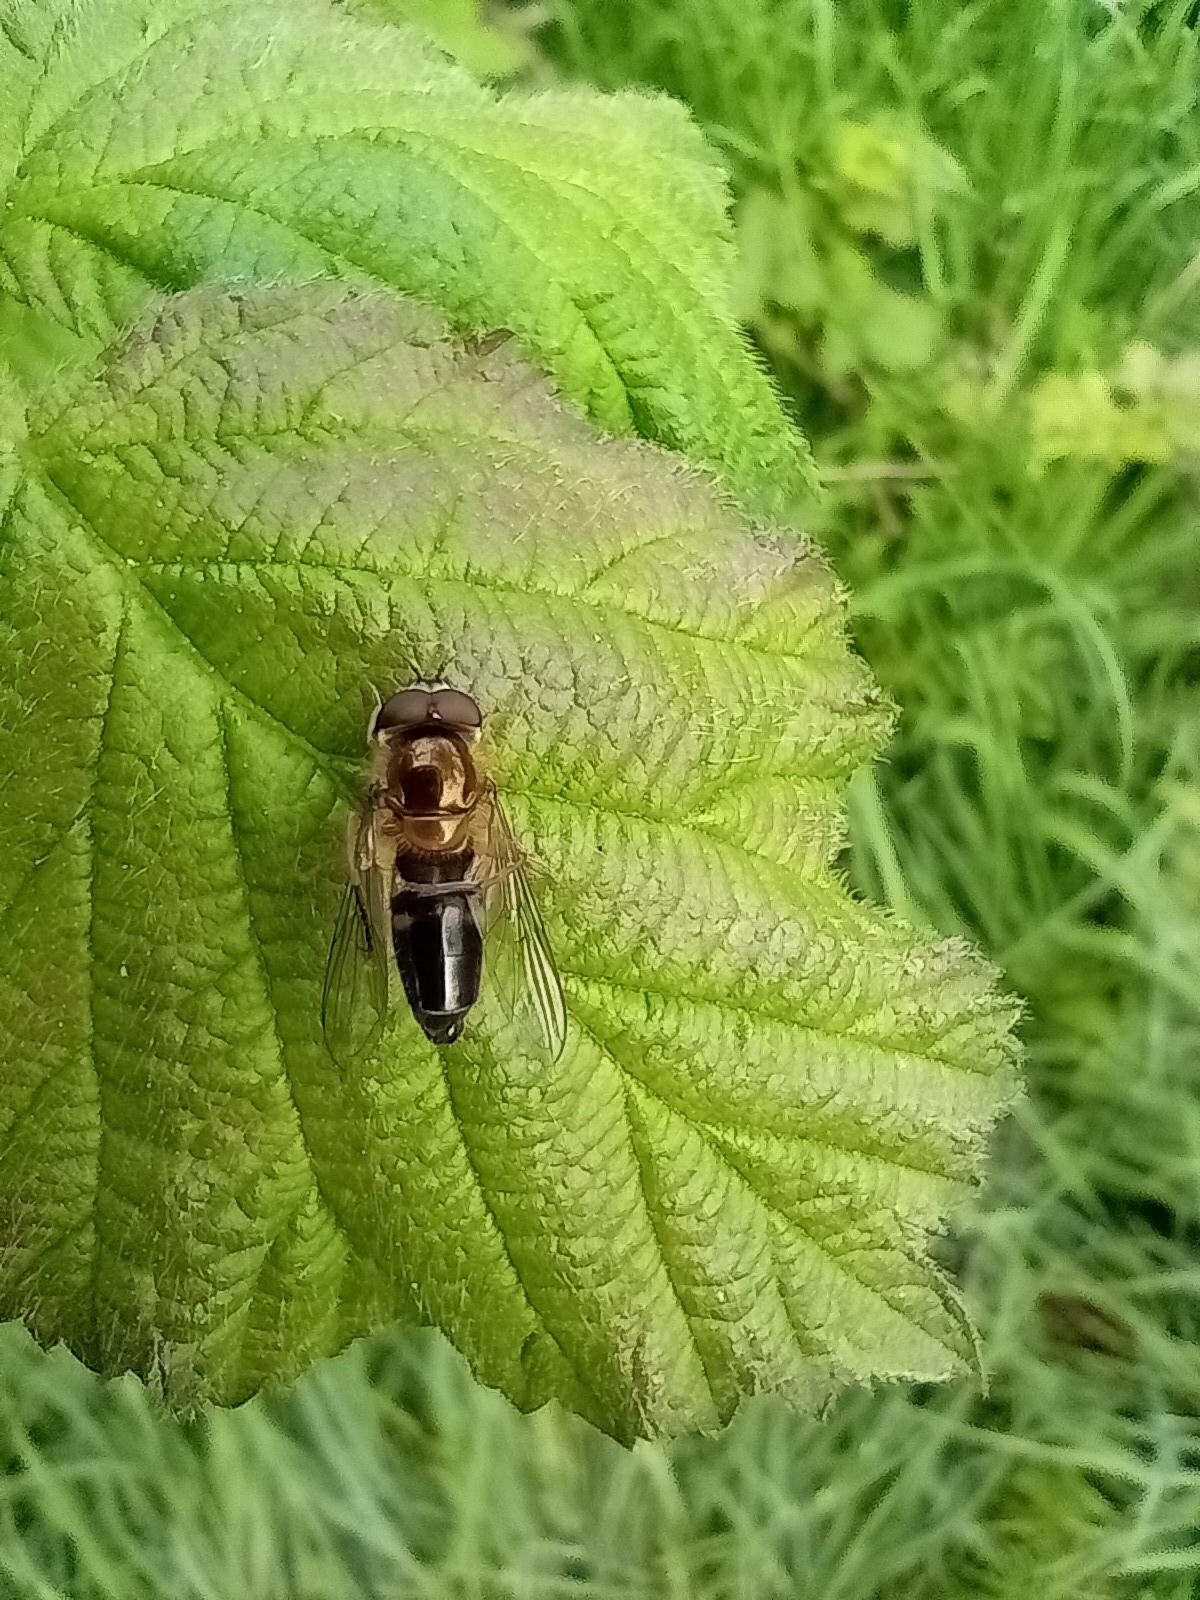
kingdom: Animalia
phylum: Arthropoda
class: Insecta
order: Diptera
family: Syrphidae
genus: Episyrphus
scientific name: Episyrphus balteatus
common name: Marmalade hoverfly
